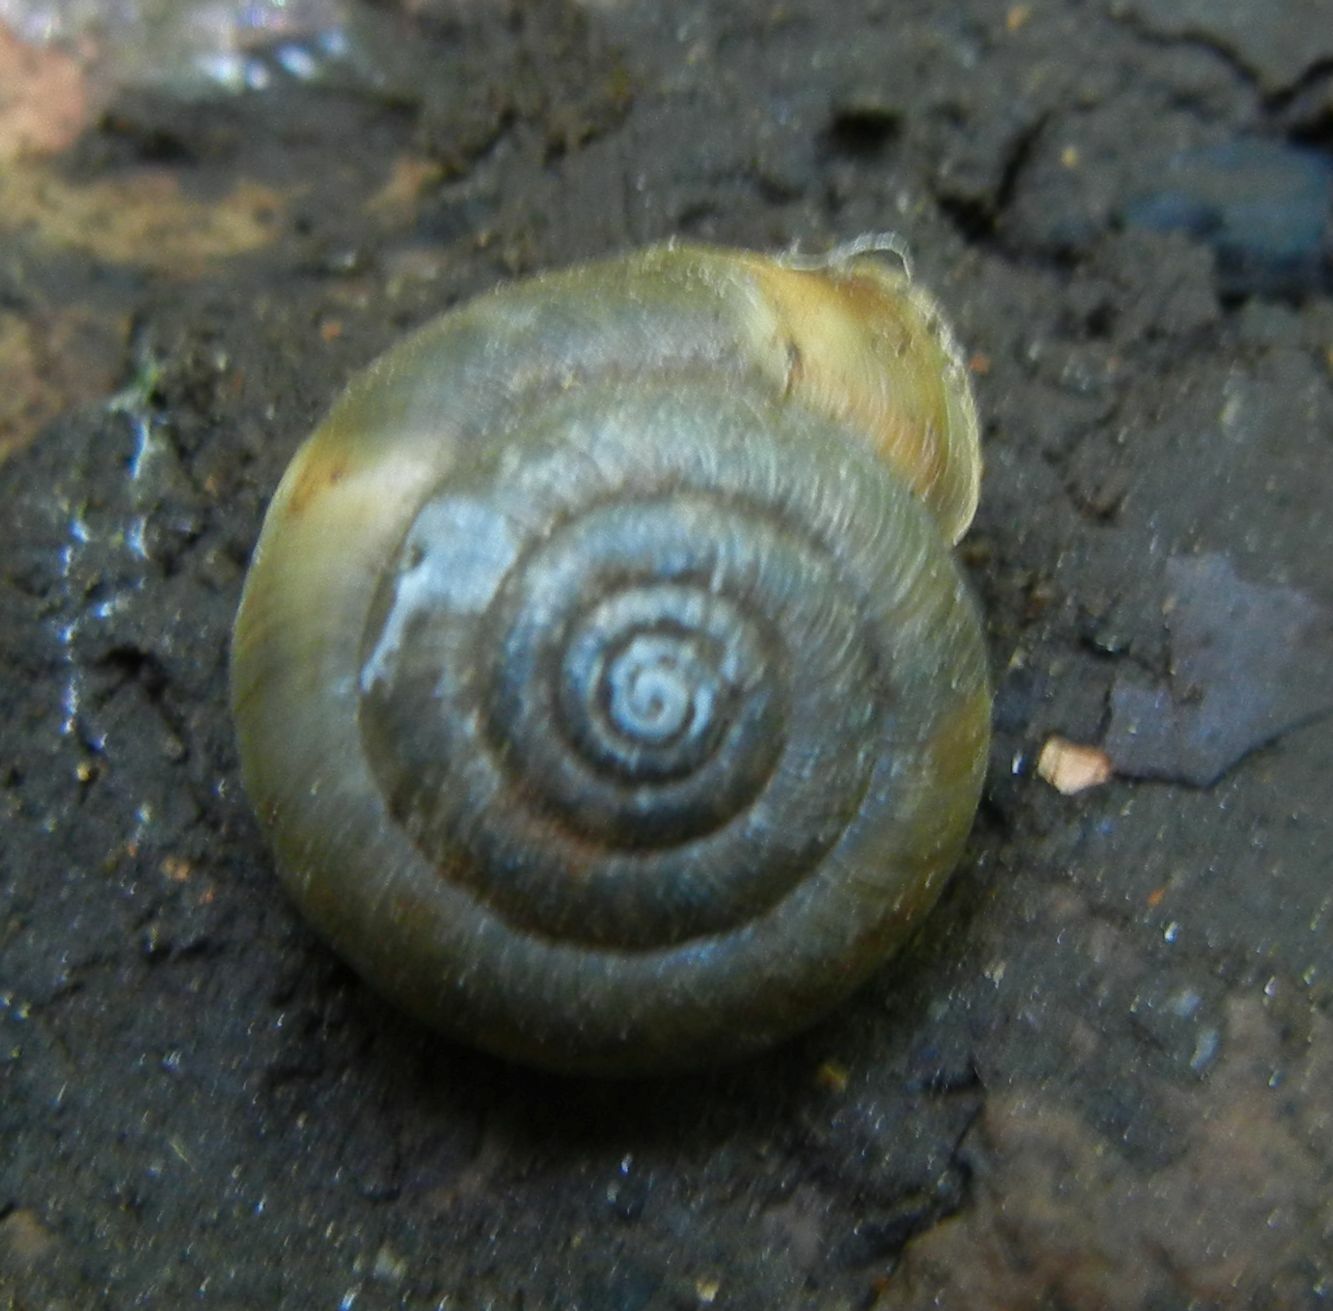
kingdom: Animalia
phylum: Mollusca
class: Gastropoda
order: Stylommatophora
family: Hygromiidae
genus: Trochulus
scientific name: Trochulus striolatus
